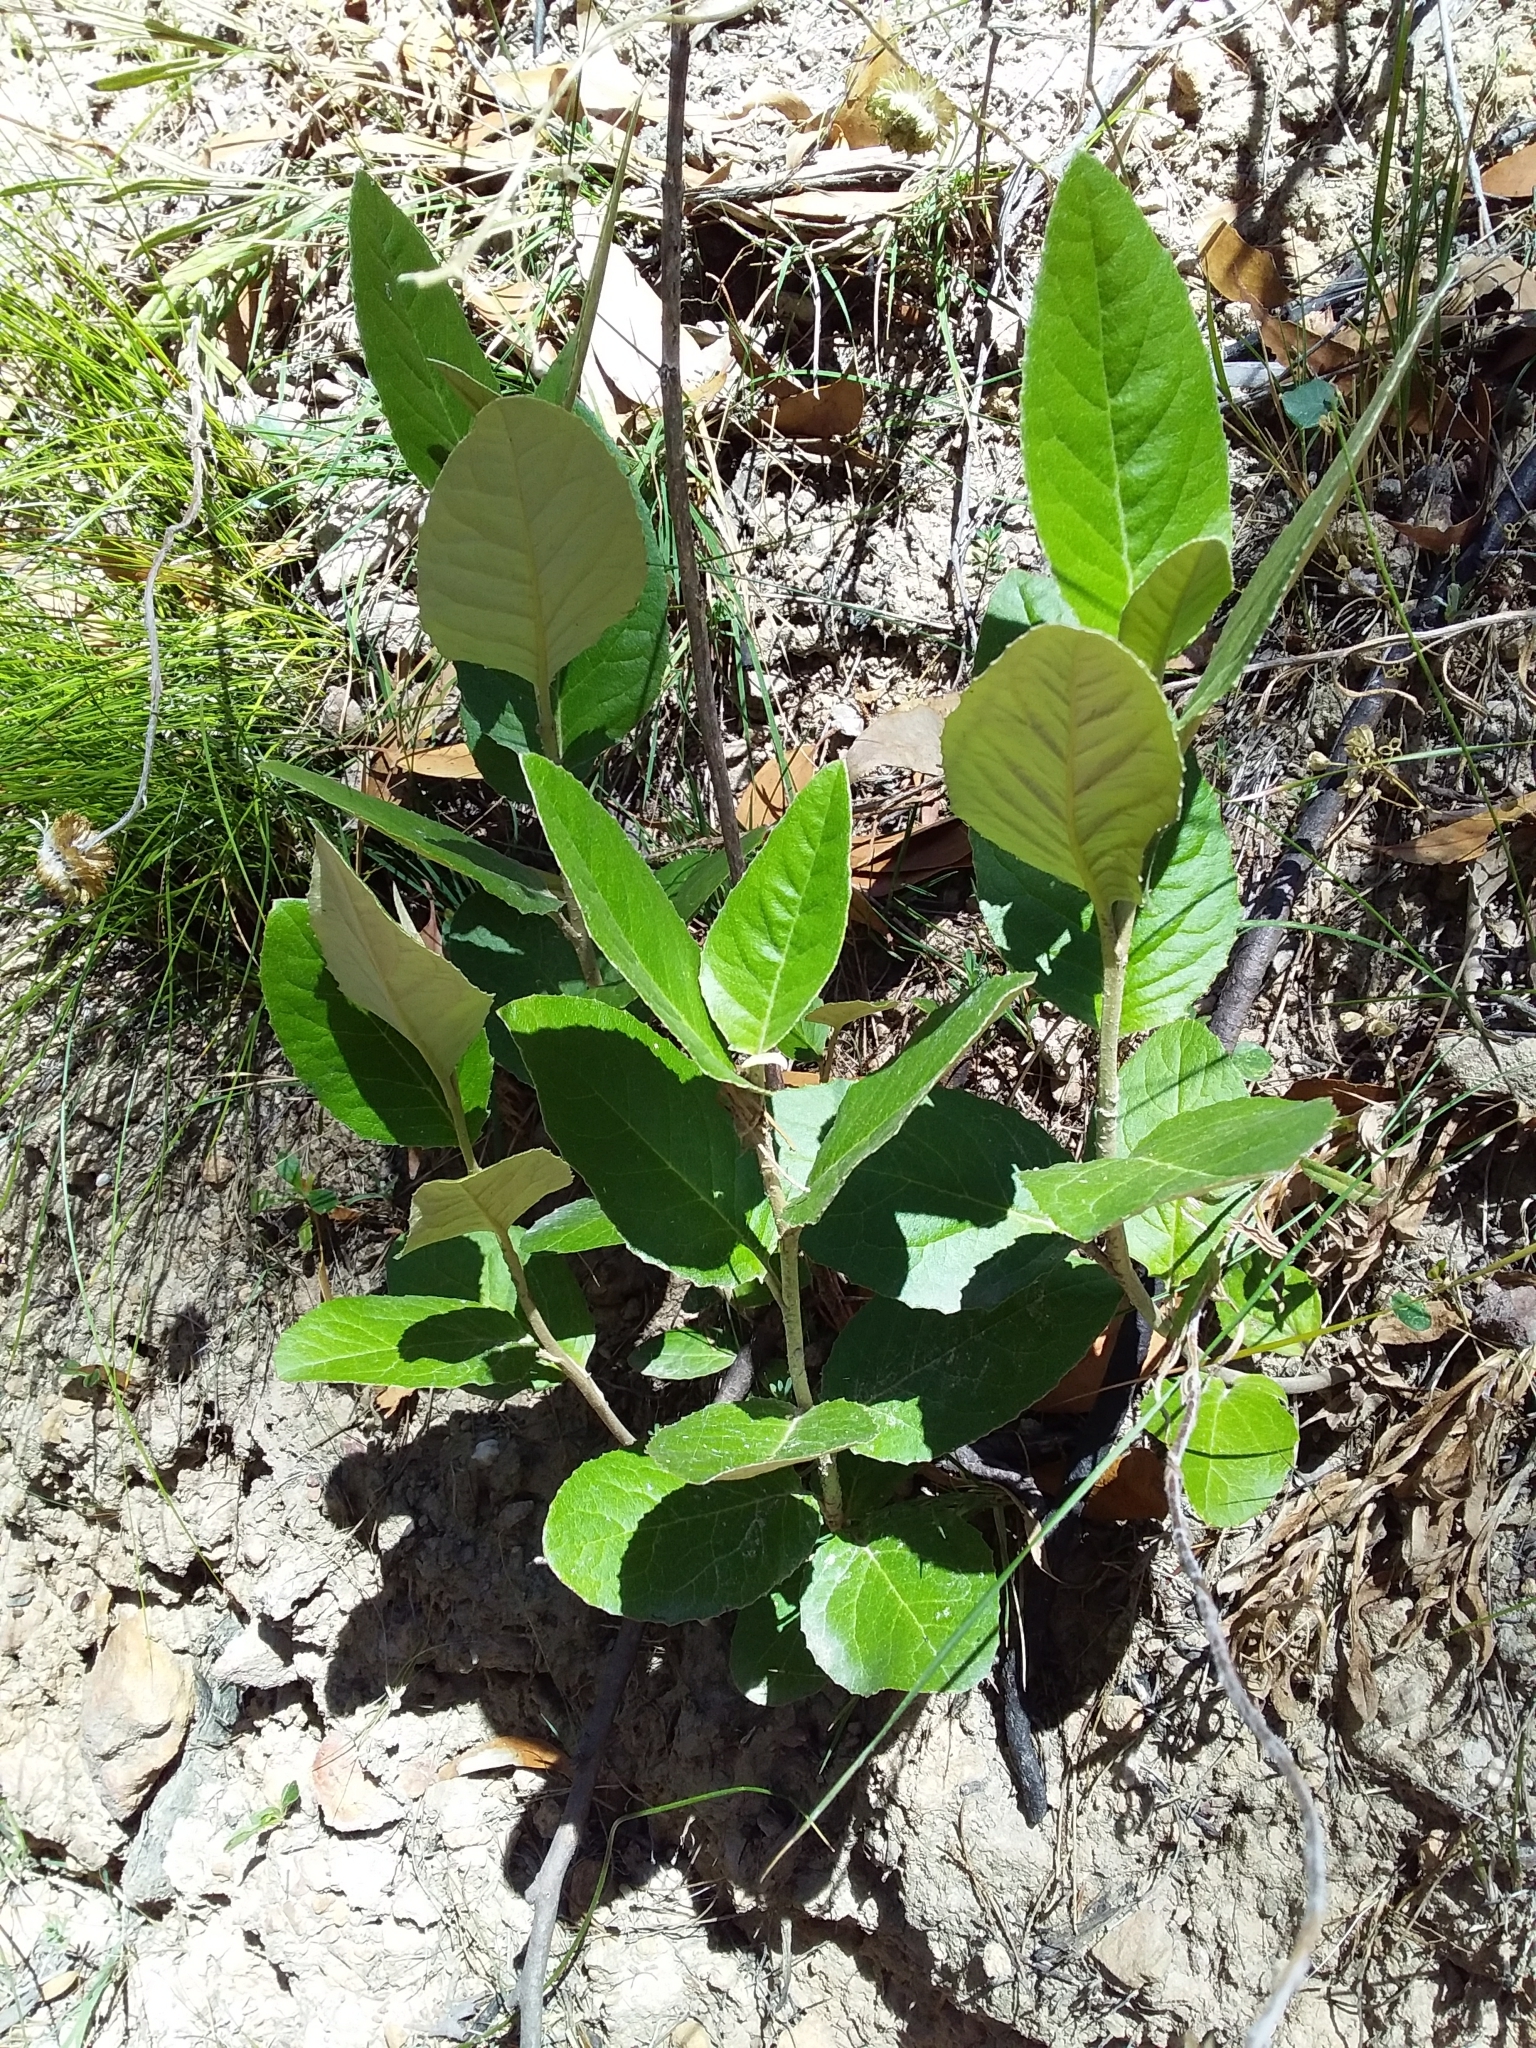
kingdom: Plantae
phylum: Tracheophyta
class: Magnoliopsida
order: Asterales
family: Asteraceae
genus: Olearia
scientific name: Olearia grandiflora
